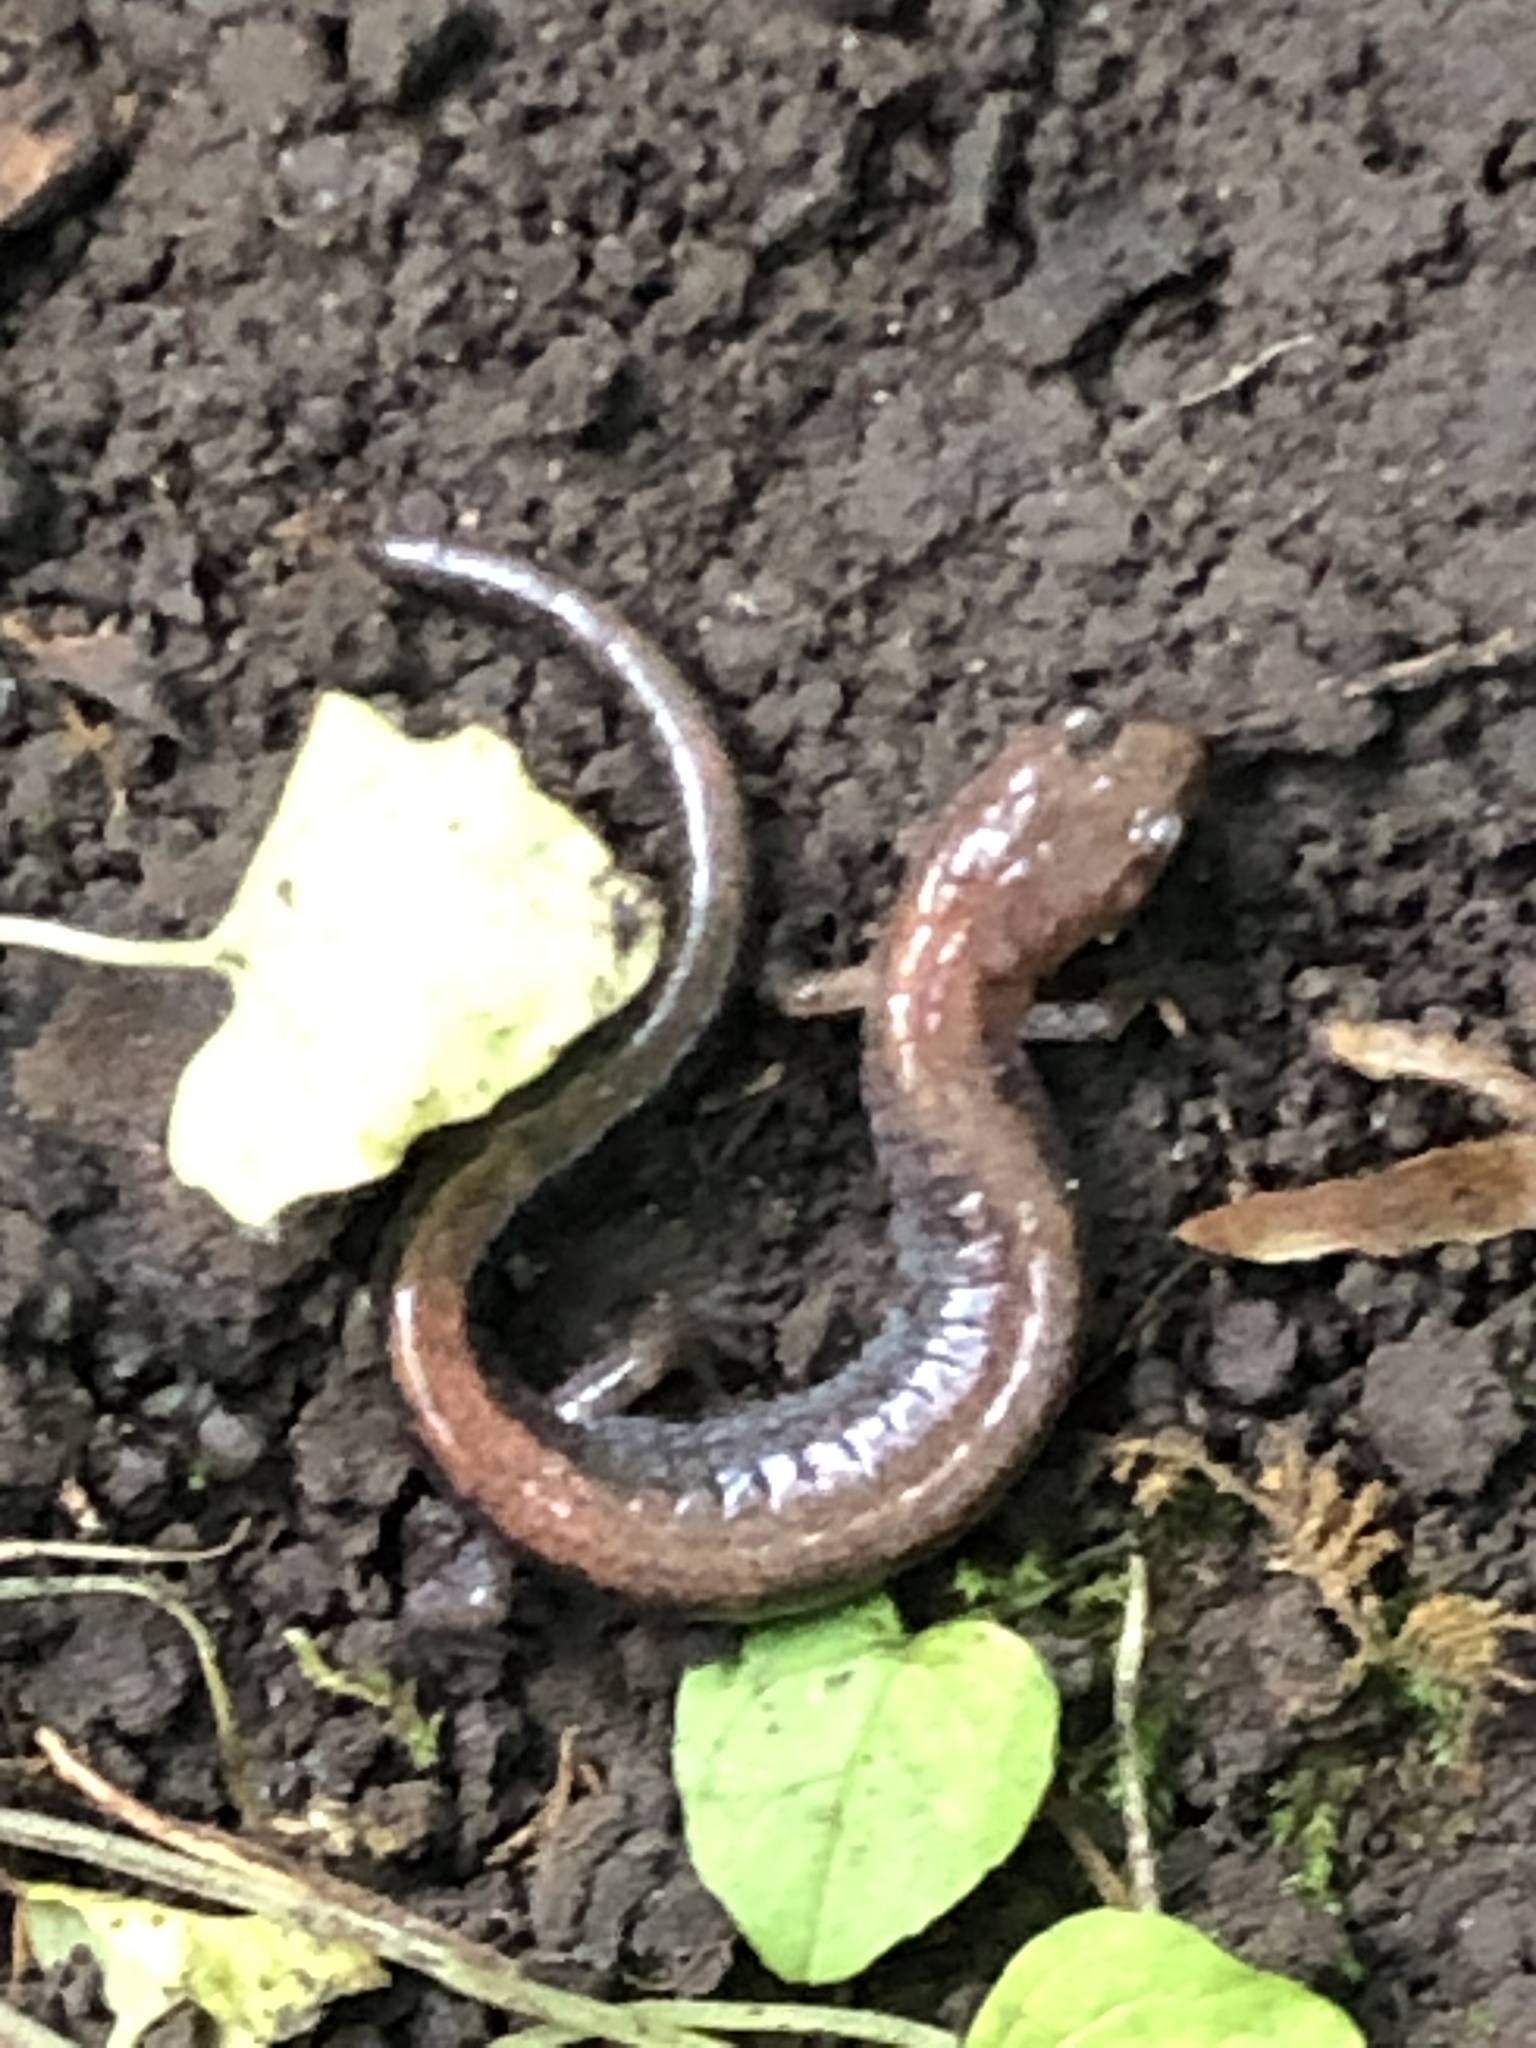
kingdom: Animalia
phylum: Chordata
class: Amphibia
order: Caudata
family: Plethodontidae
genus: Plethodon
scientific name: Plethodon cinereus
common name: Redback salamander
